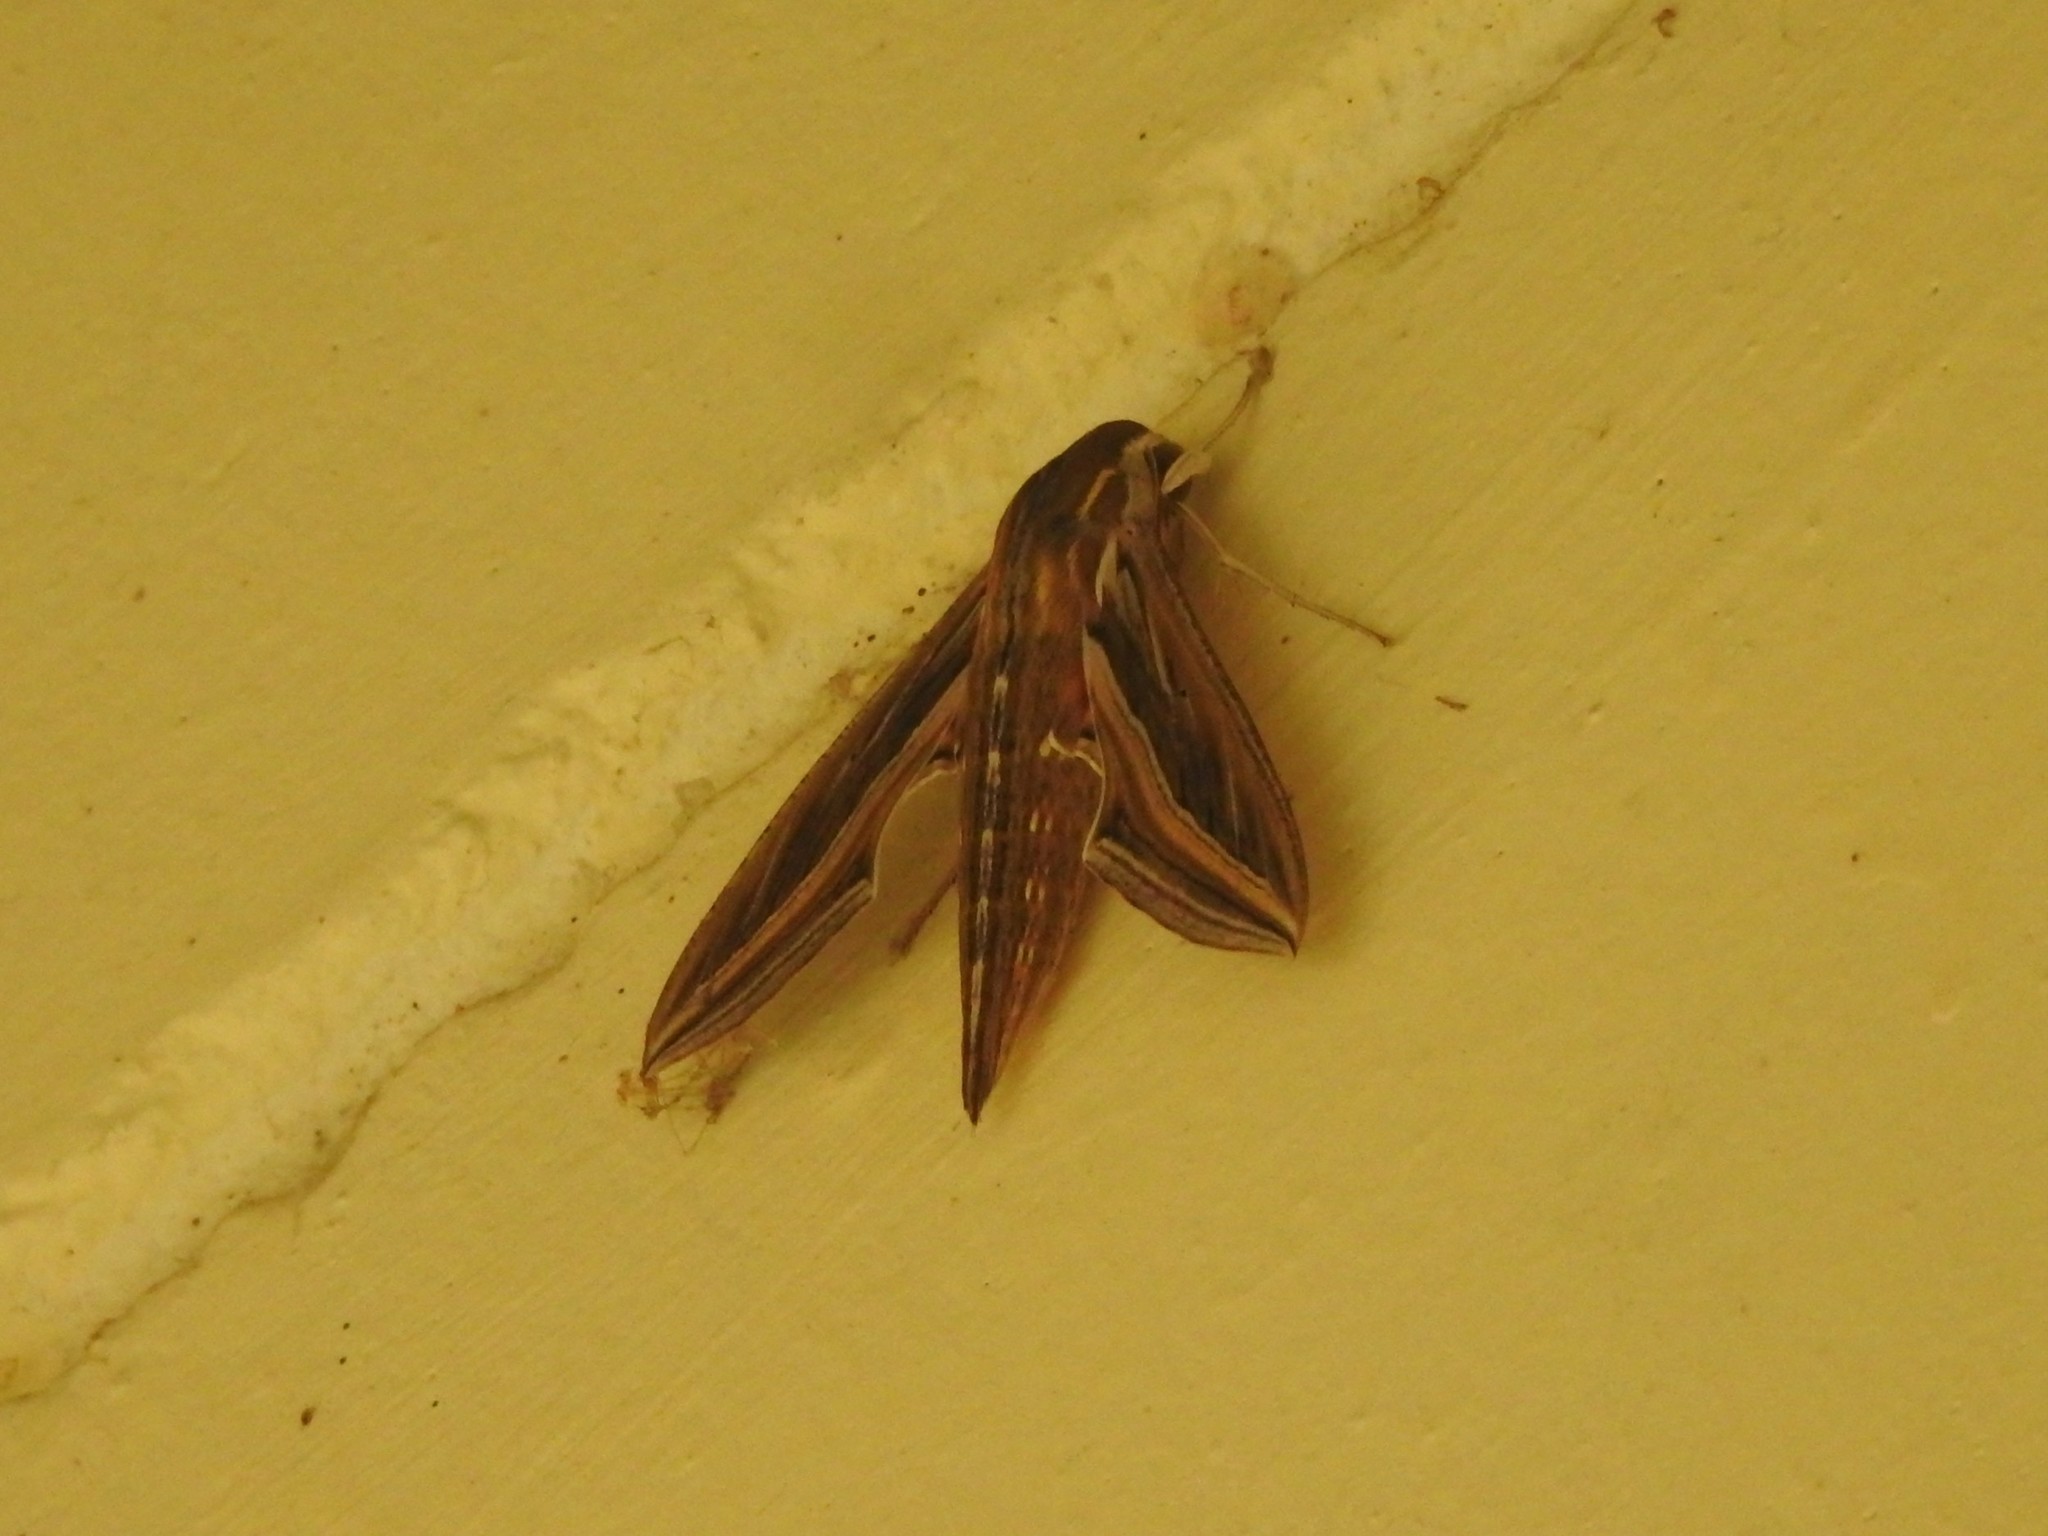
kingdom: Animalia
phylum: Arthropoda
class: Insecta
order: Lepidoptera
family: Sphingidae
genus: Hippotion
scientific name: Hippotion celerio
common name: Silver-striped hawk-moth
